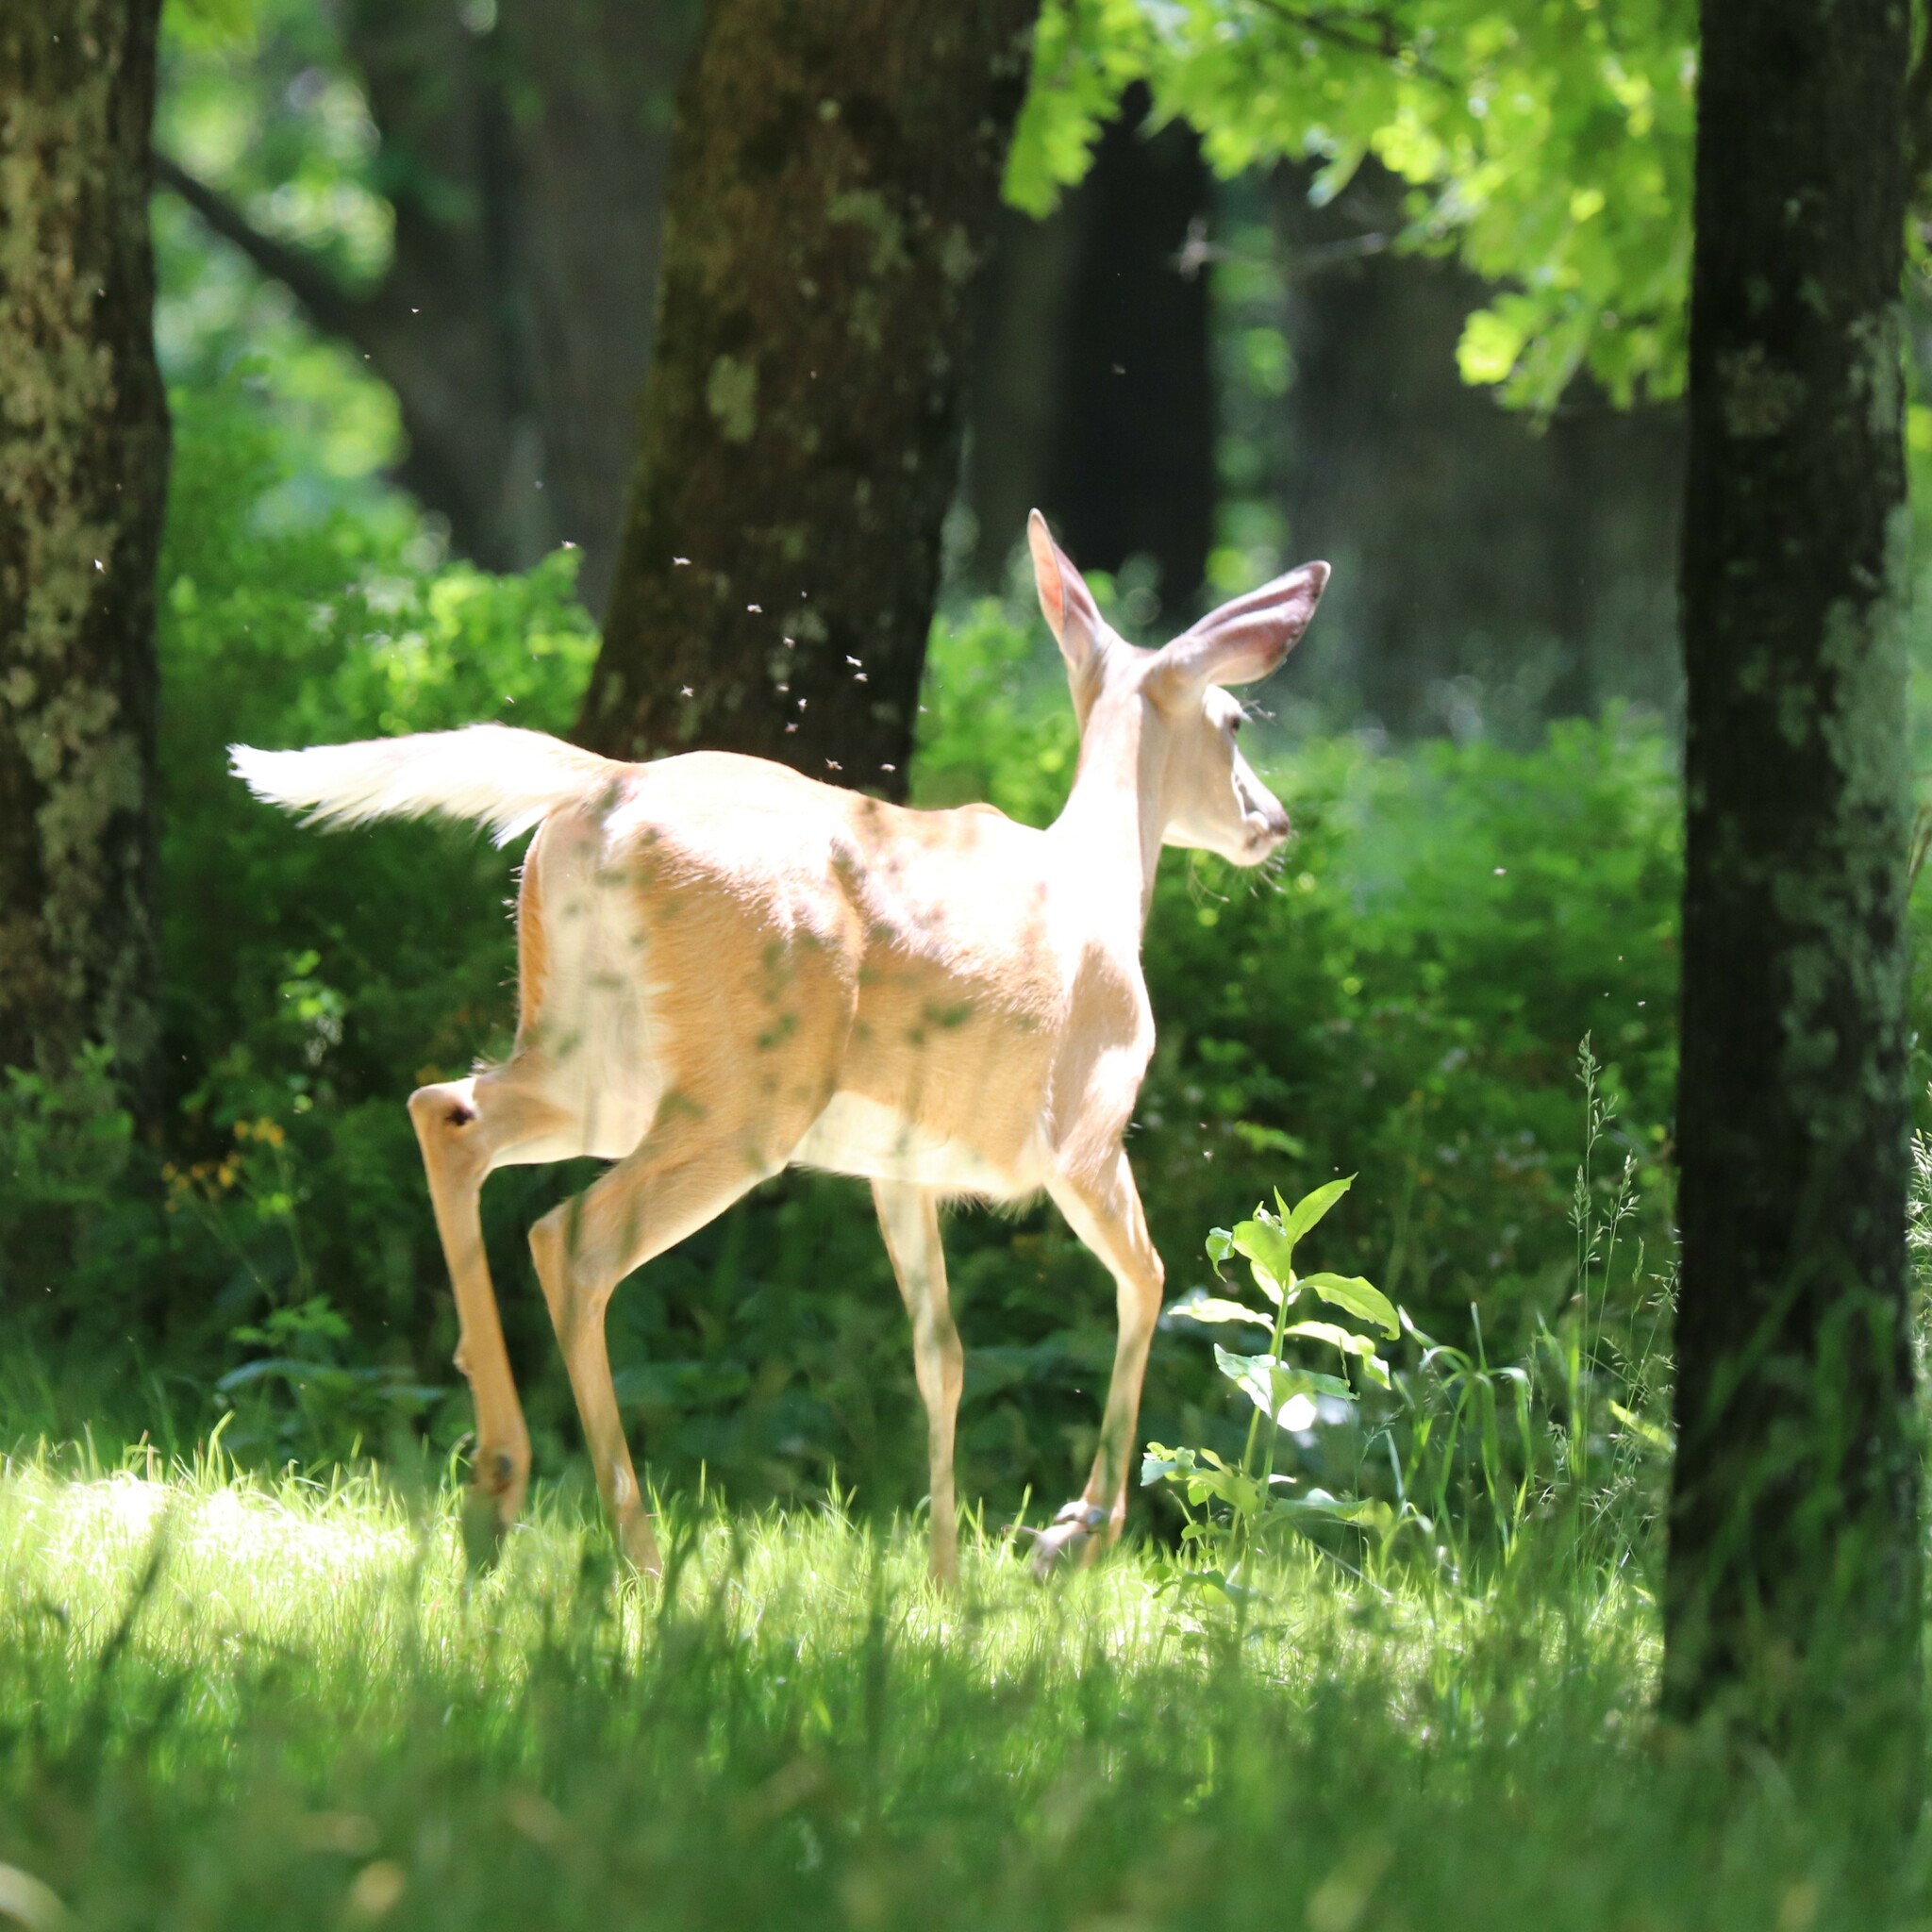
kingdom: Animalia
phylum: Chordata
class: Mammalia
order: Artiodactyla
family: Cervidae
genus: Odocoileus
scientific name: Odocoileus virginianus
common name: White-tailed deer
